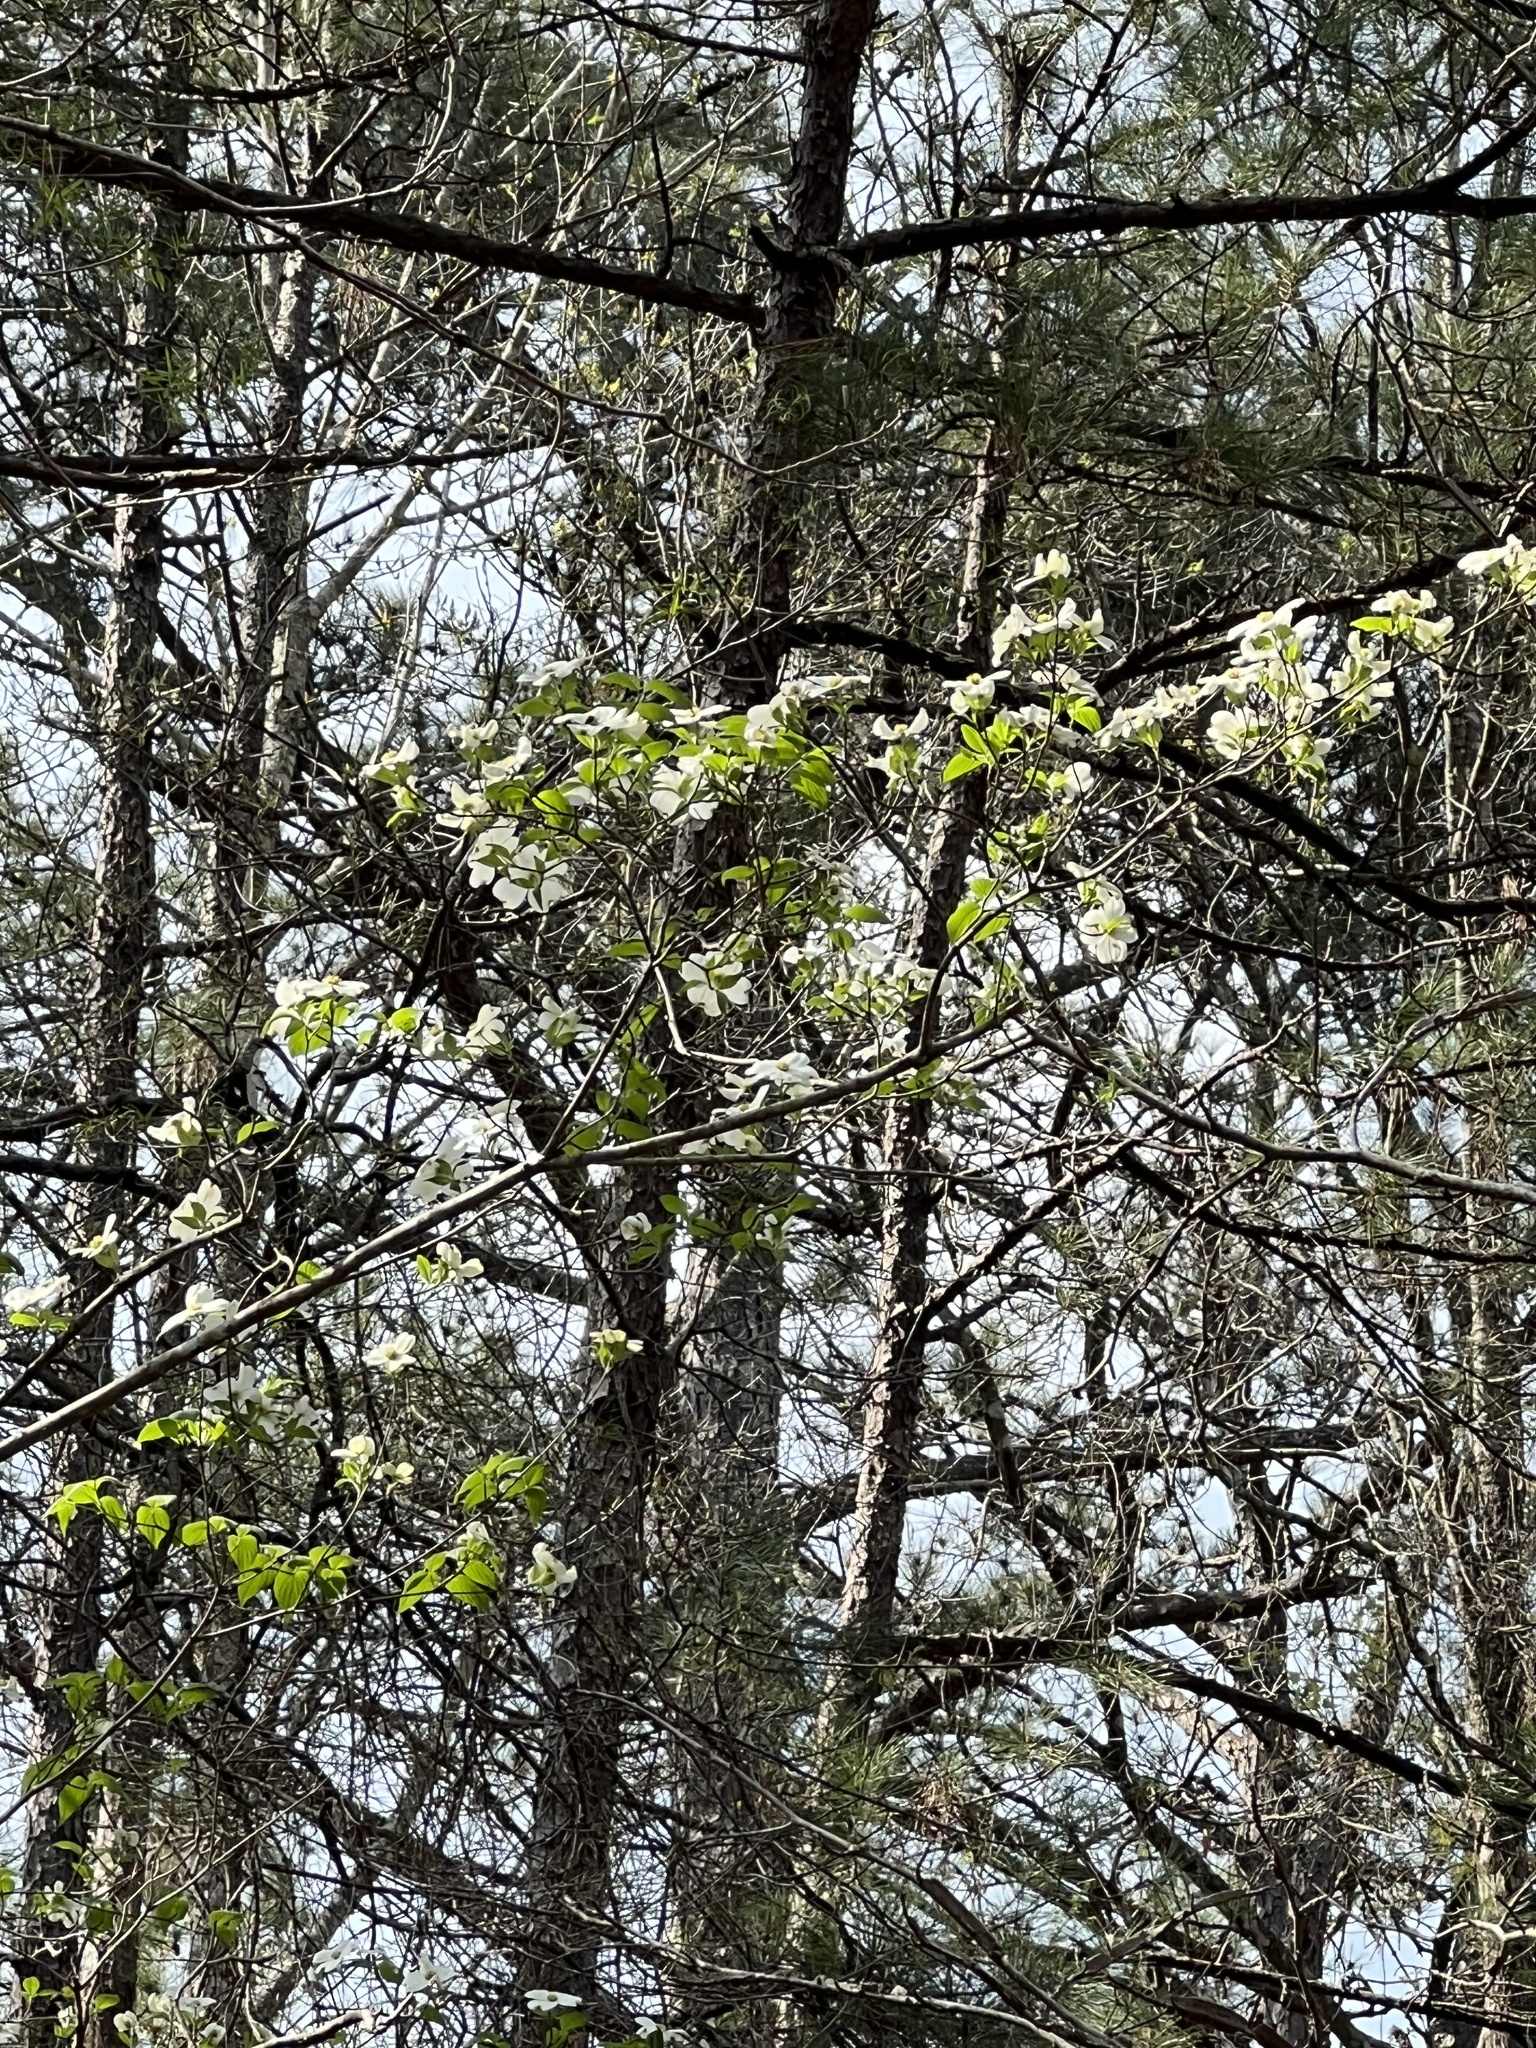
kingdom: Plantae
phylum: Tracheophyta
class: Magnoliopsida
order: Cornales
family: Cornaceae
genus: Cornus
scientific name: Cornus florida
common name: Flowering dogwood
